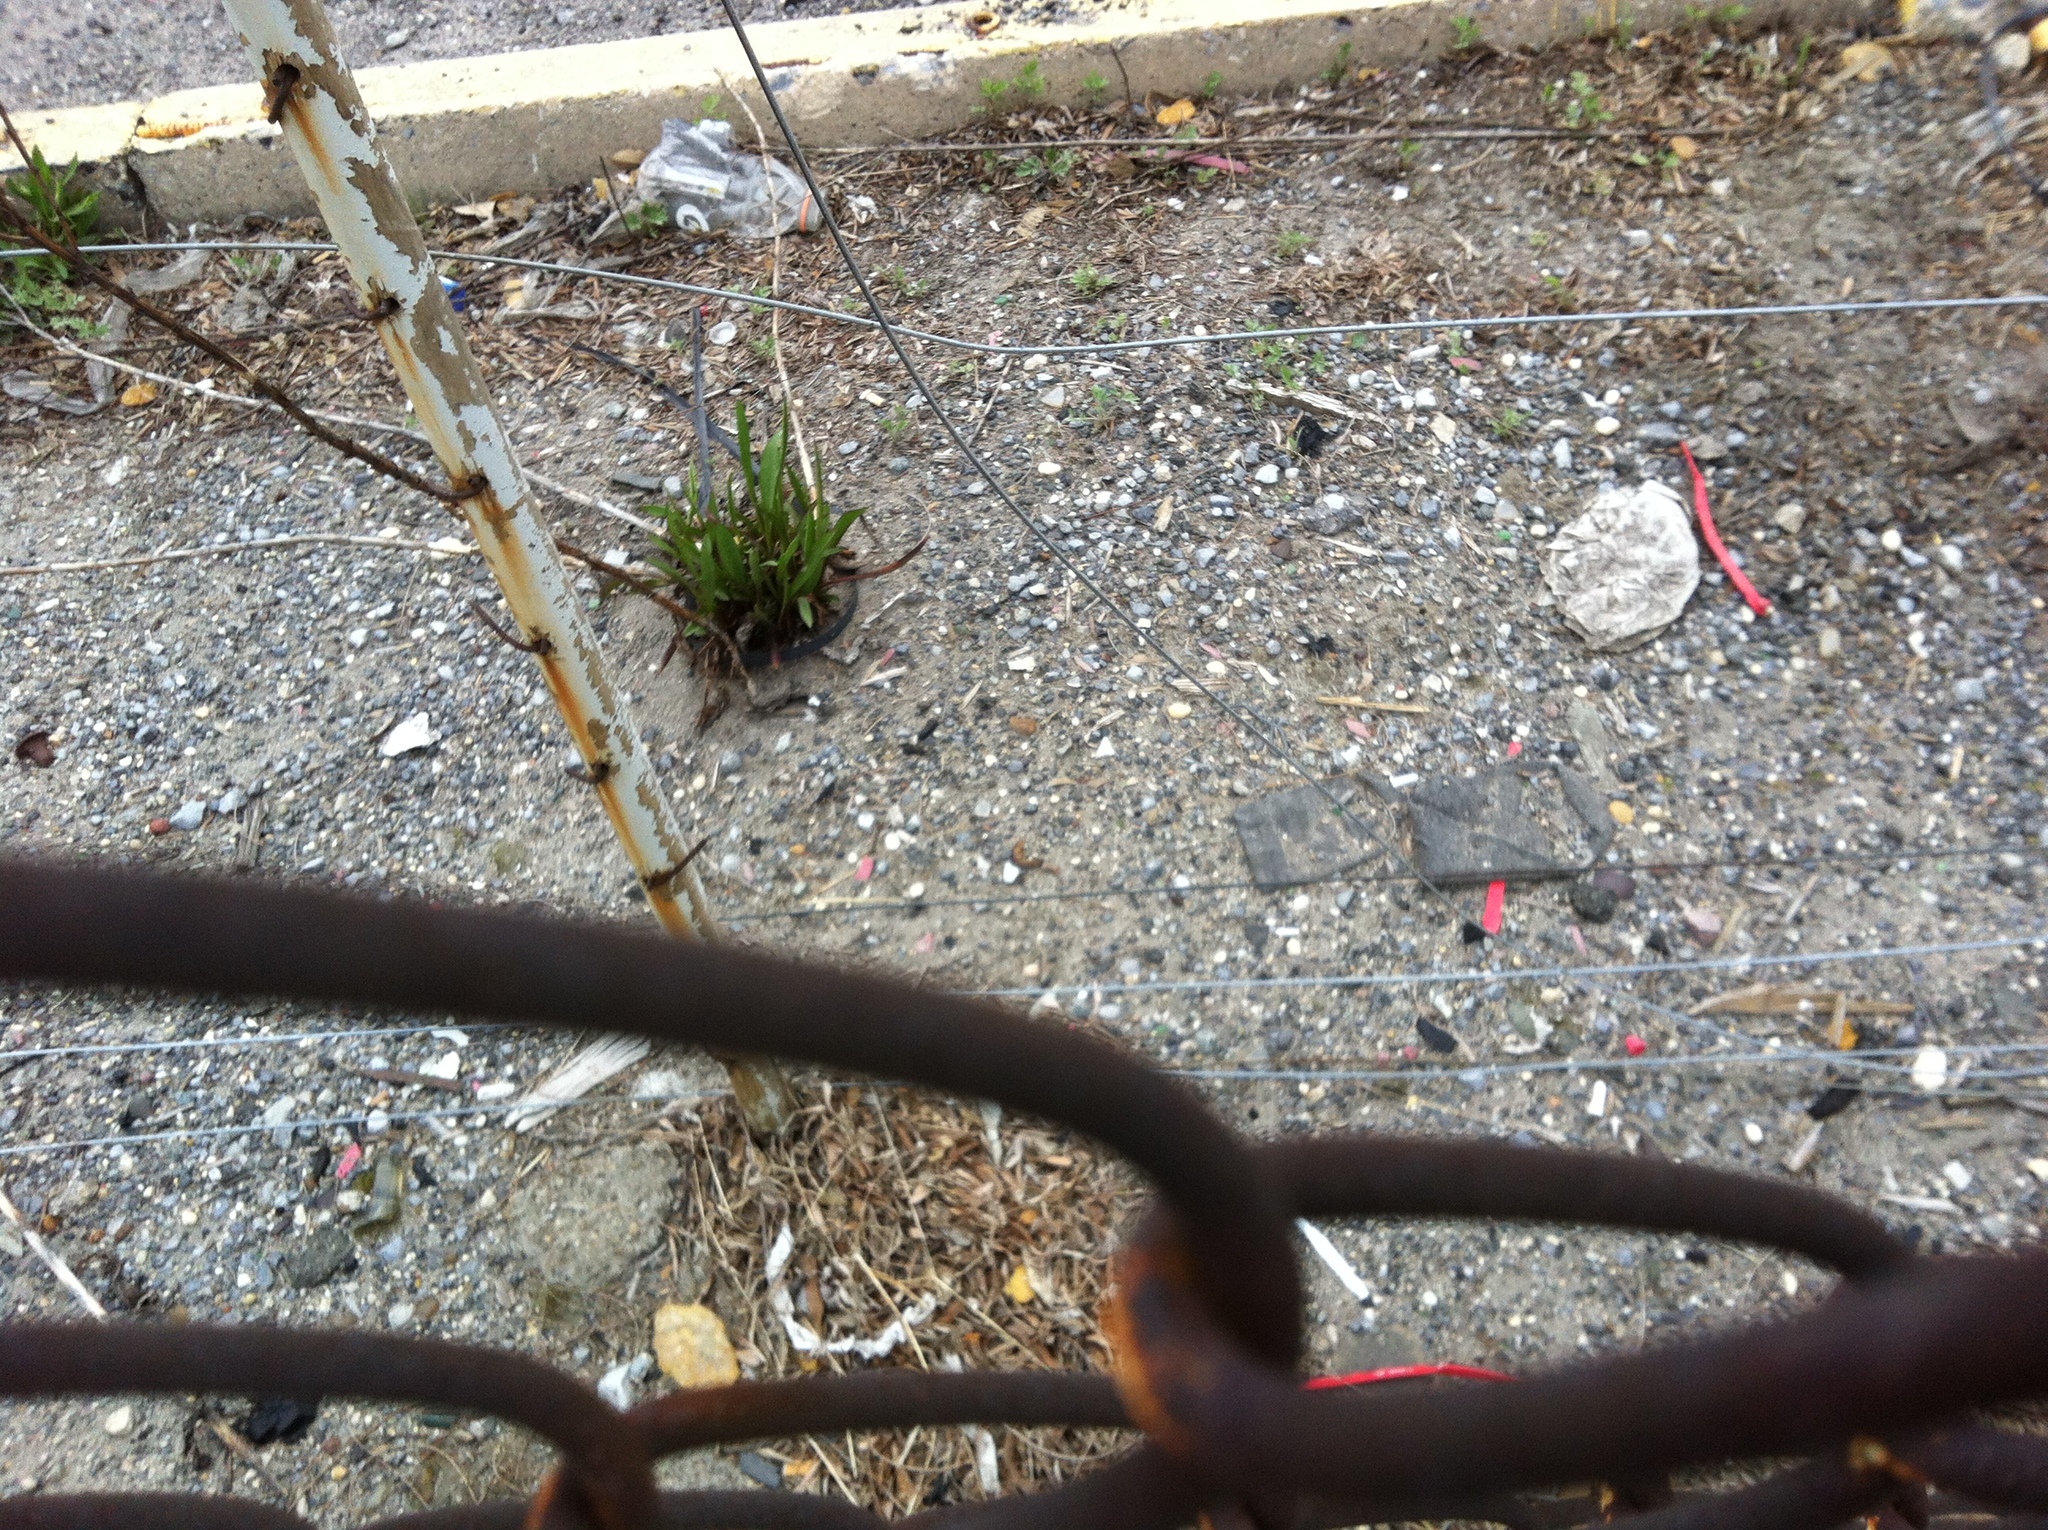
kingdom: Plantae
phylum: Tracheophyta
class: Magnoliopsida
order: Asterales
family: Asteraceae
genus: Solidago
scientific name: Solidago sempervirens
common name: Salt-marsh goldenrod
